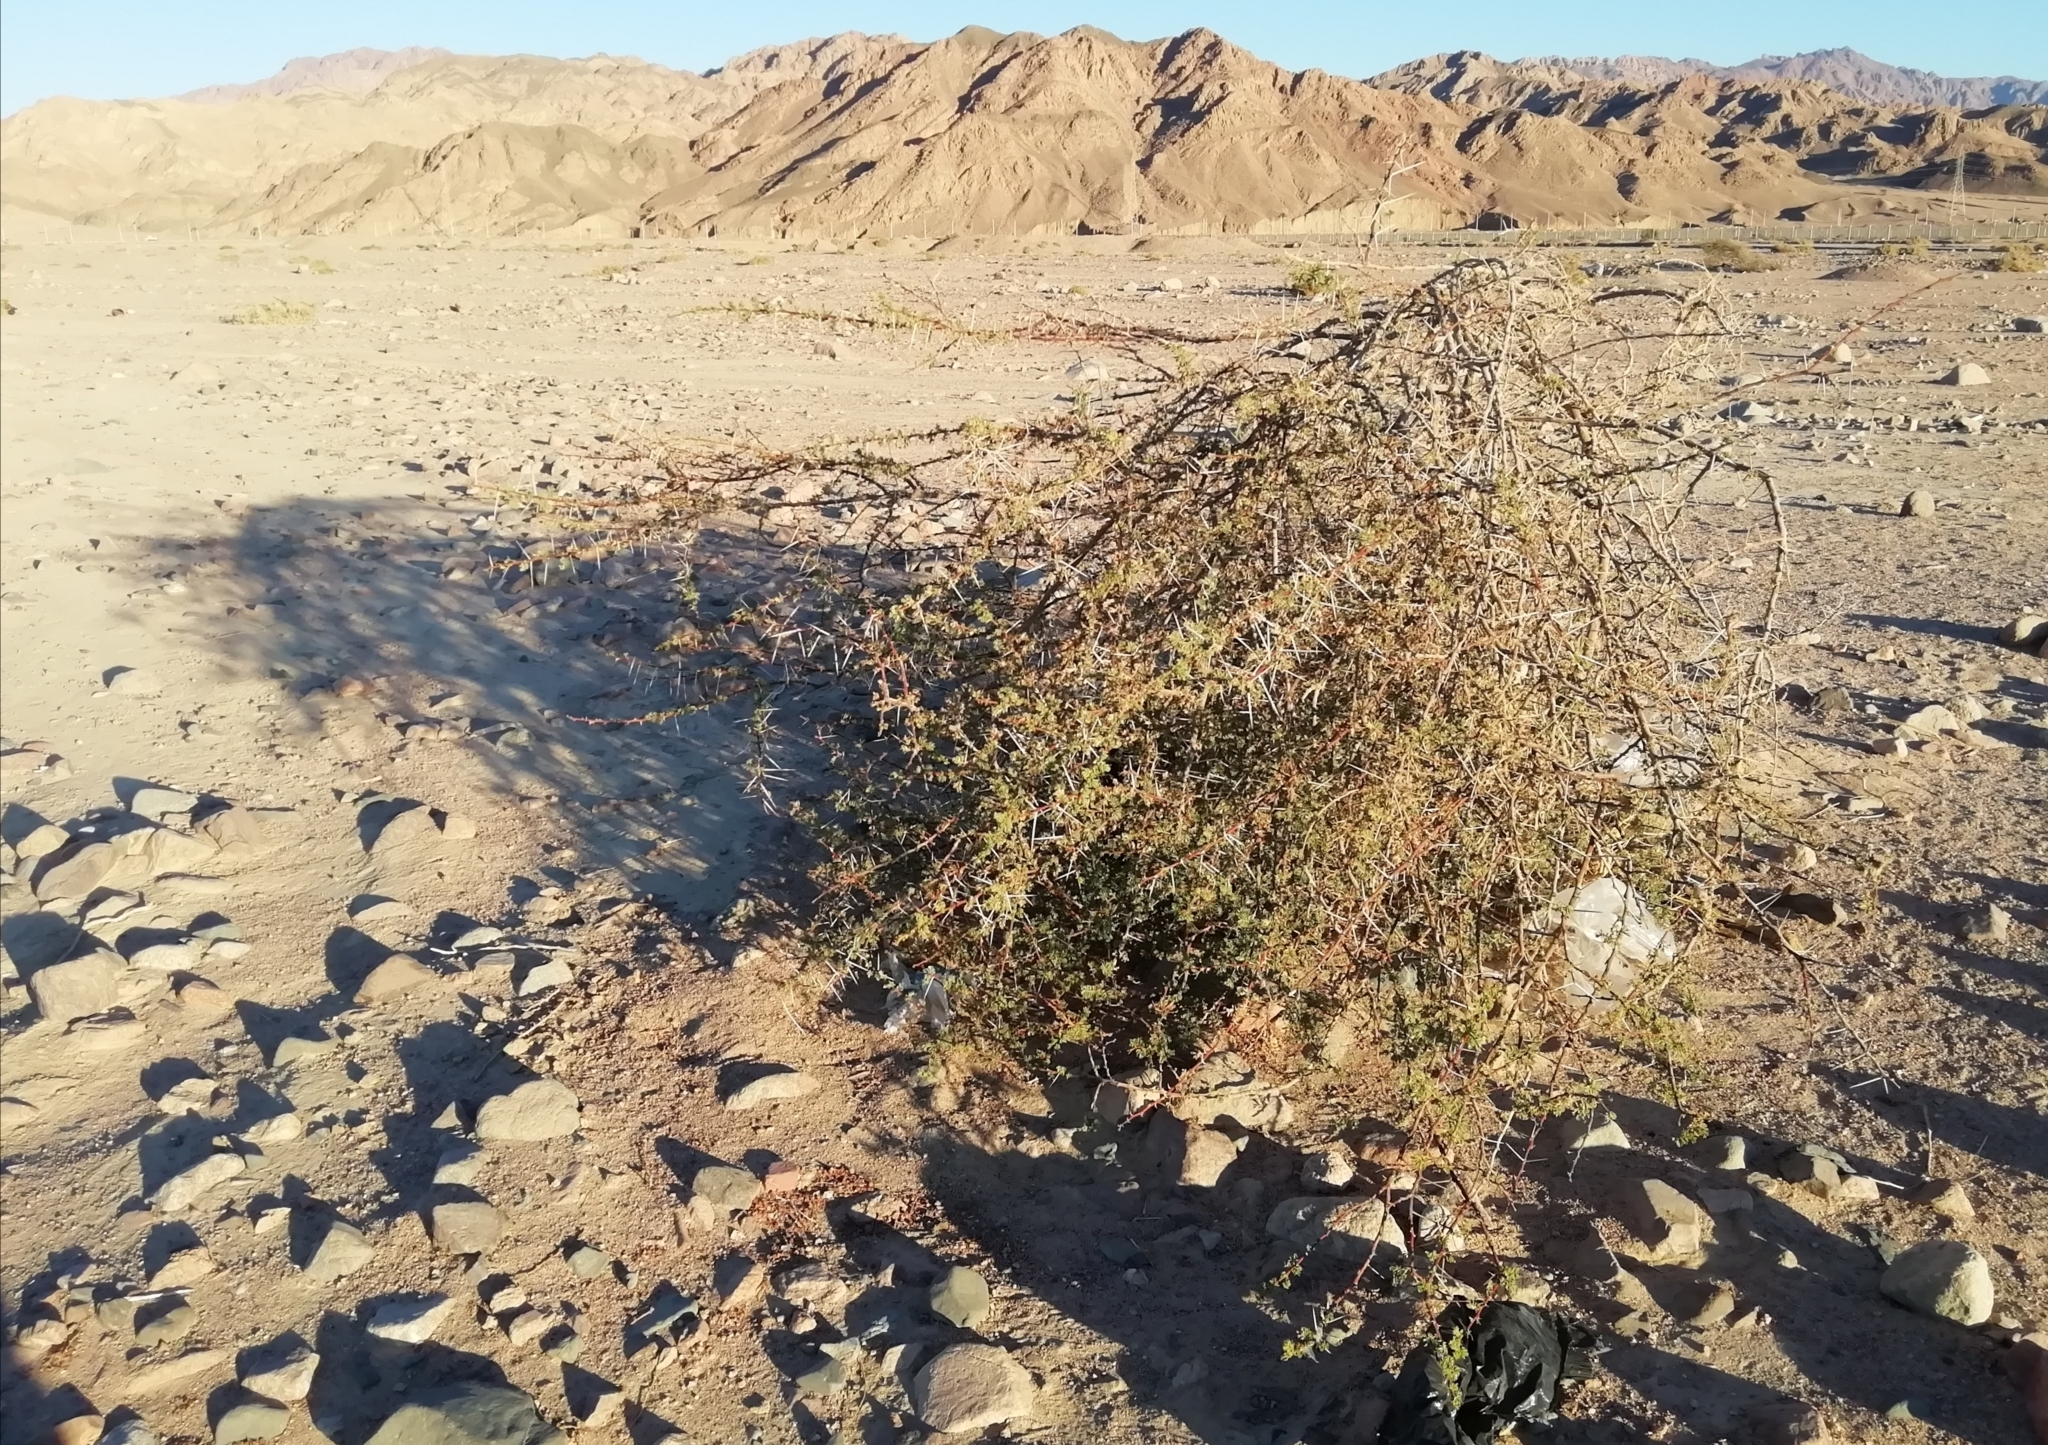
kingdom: Plantae
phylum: Tracheophyta
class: Magnoliopsida
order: Fabales
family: Fabaceae
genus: Vachellia
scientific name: Vachellia tortilis
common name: Umbrella thorn acacia
